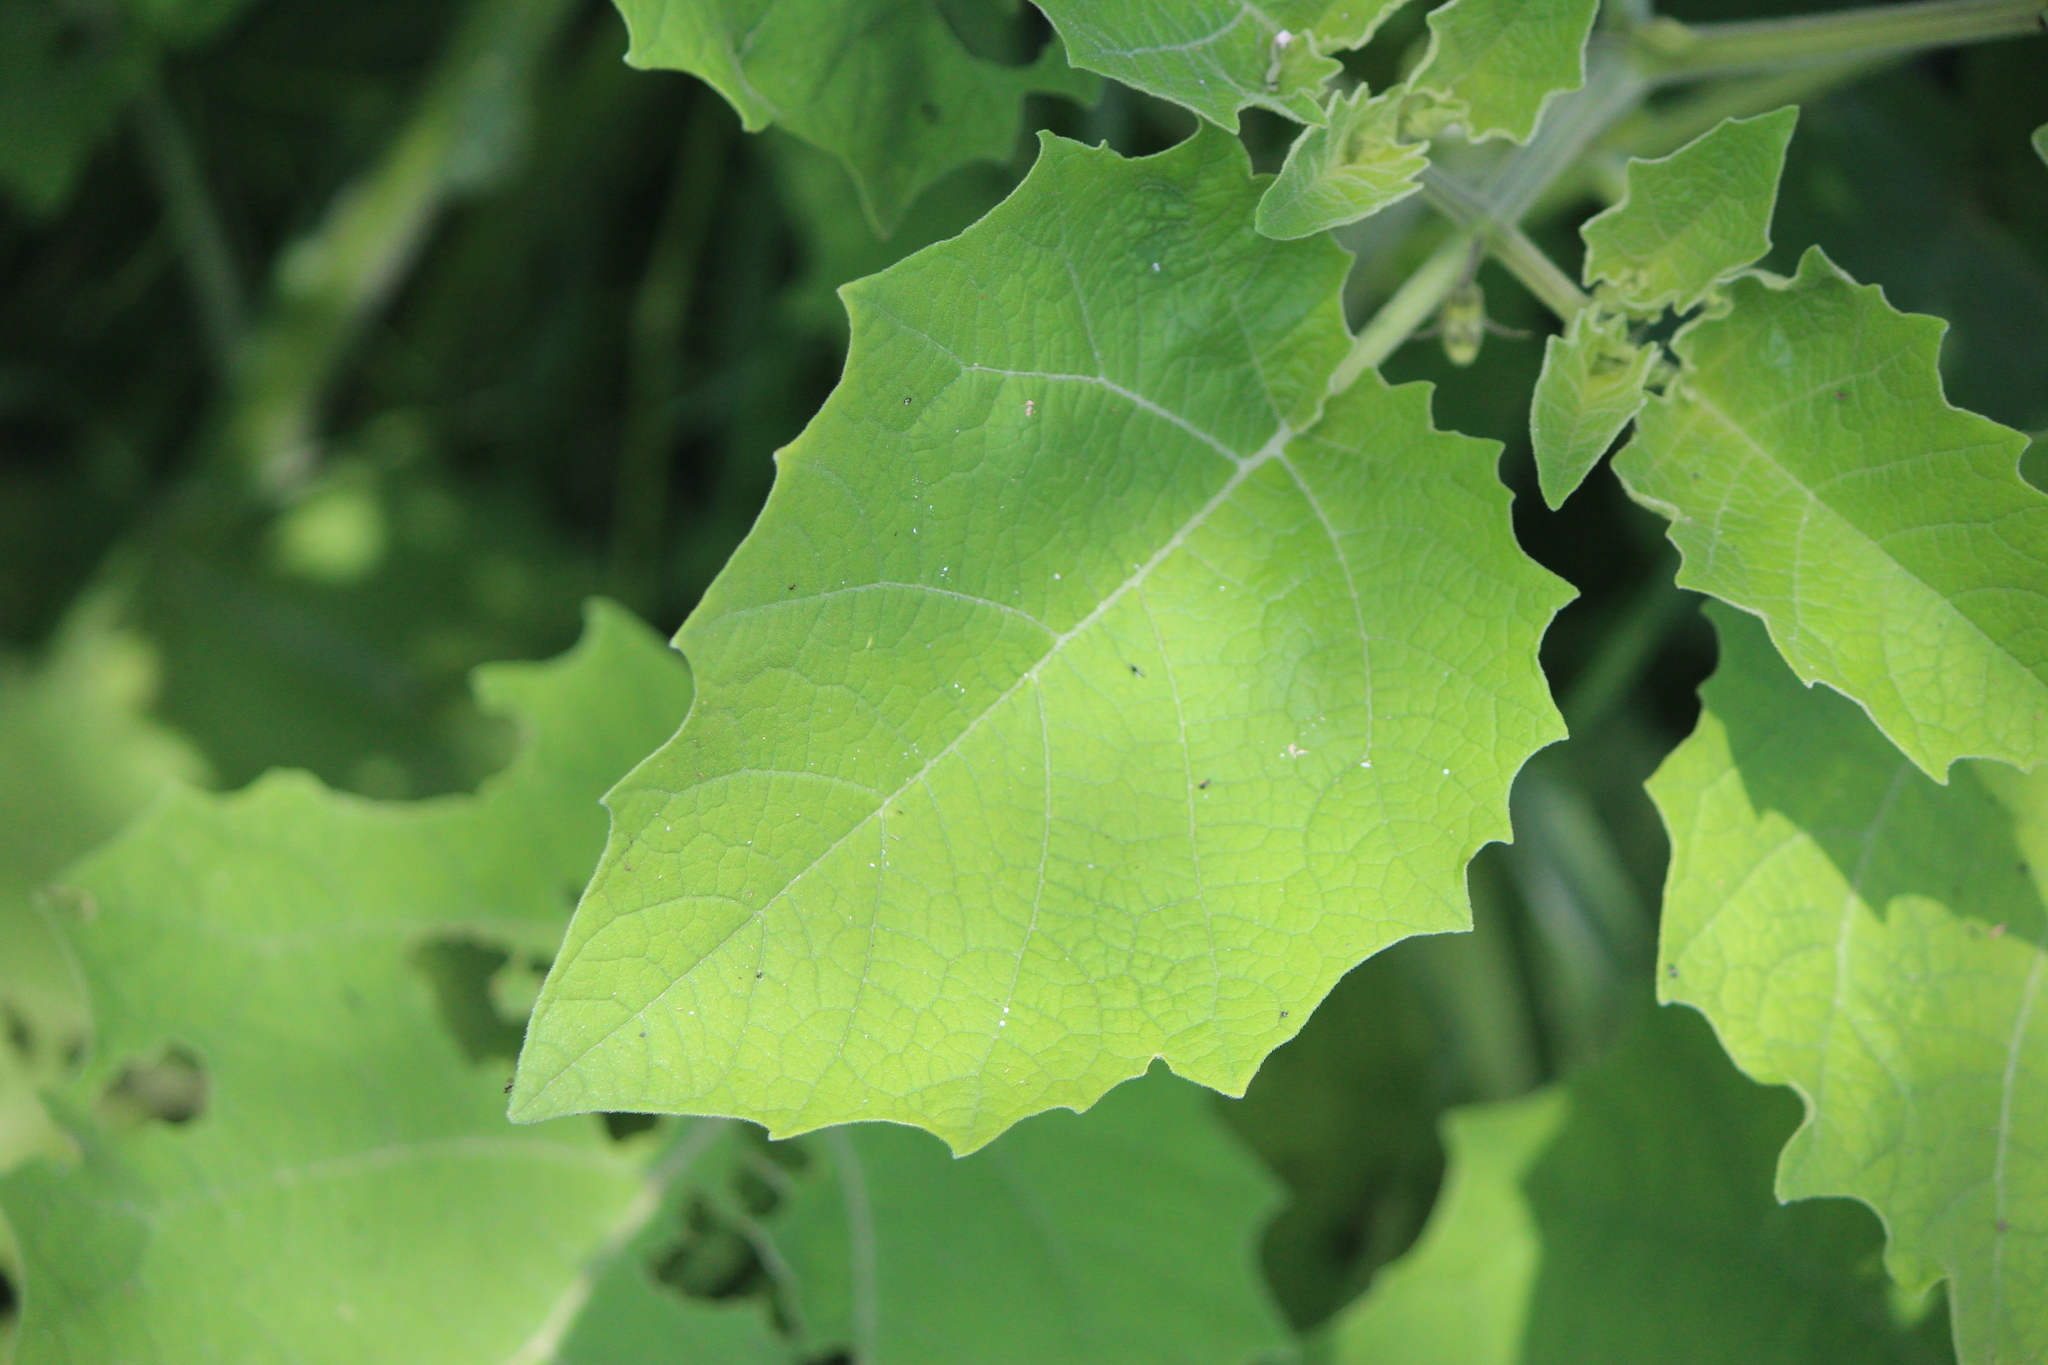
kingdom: Plantae
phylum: Tracheophyta
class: Magnoliopsida
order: Solanales
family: Solanaceae
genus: Physalis
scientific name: Physalis nicandroides
